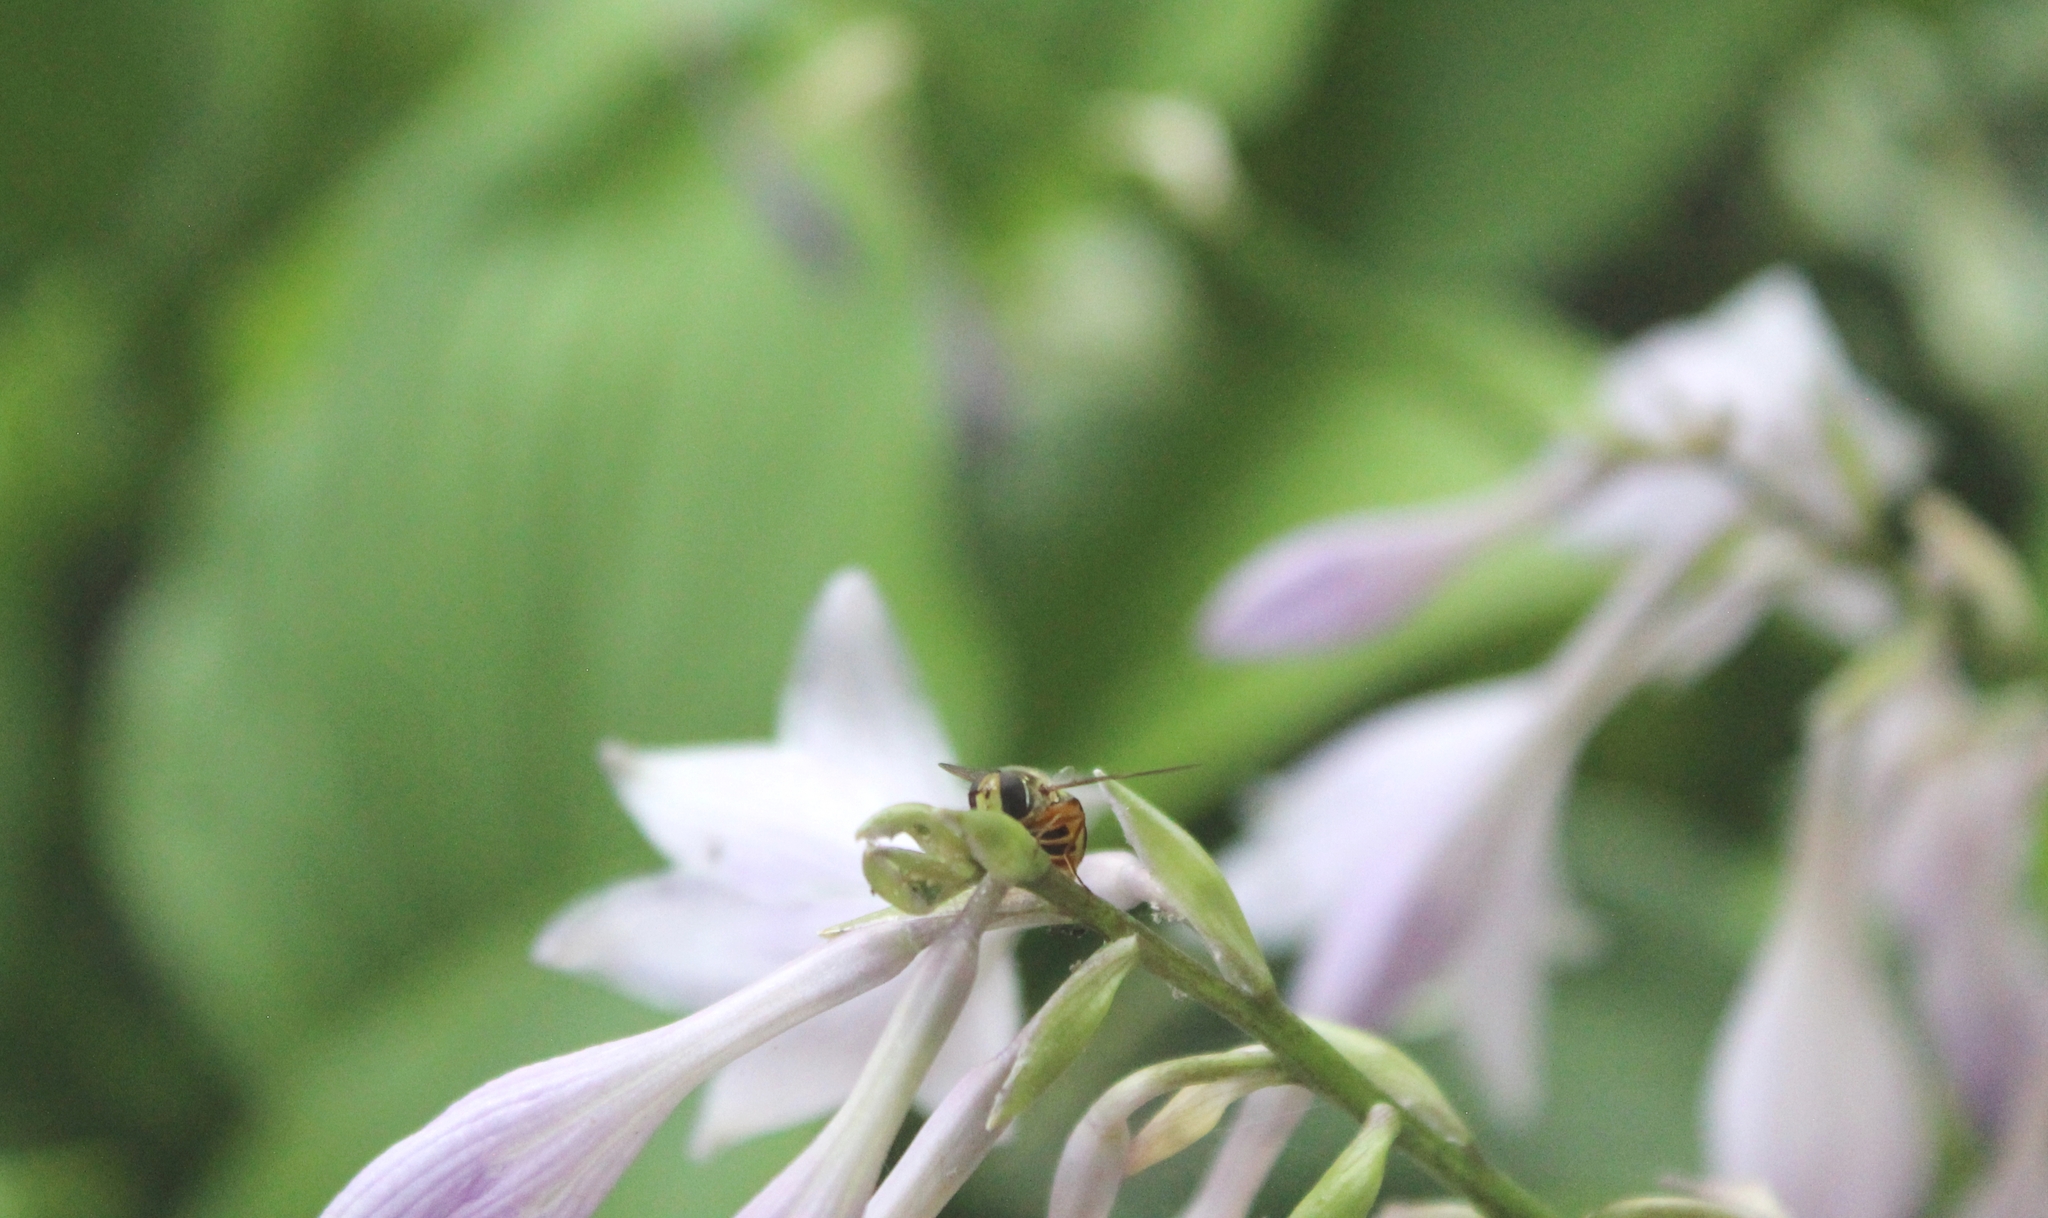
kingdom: Animalia
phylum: Arthropoda
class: Insecta
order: Diptera
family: Syrphidae
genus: Eupeodes
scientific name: Eupeodes fumipennis
